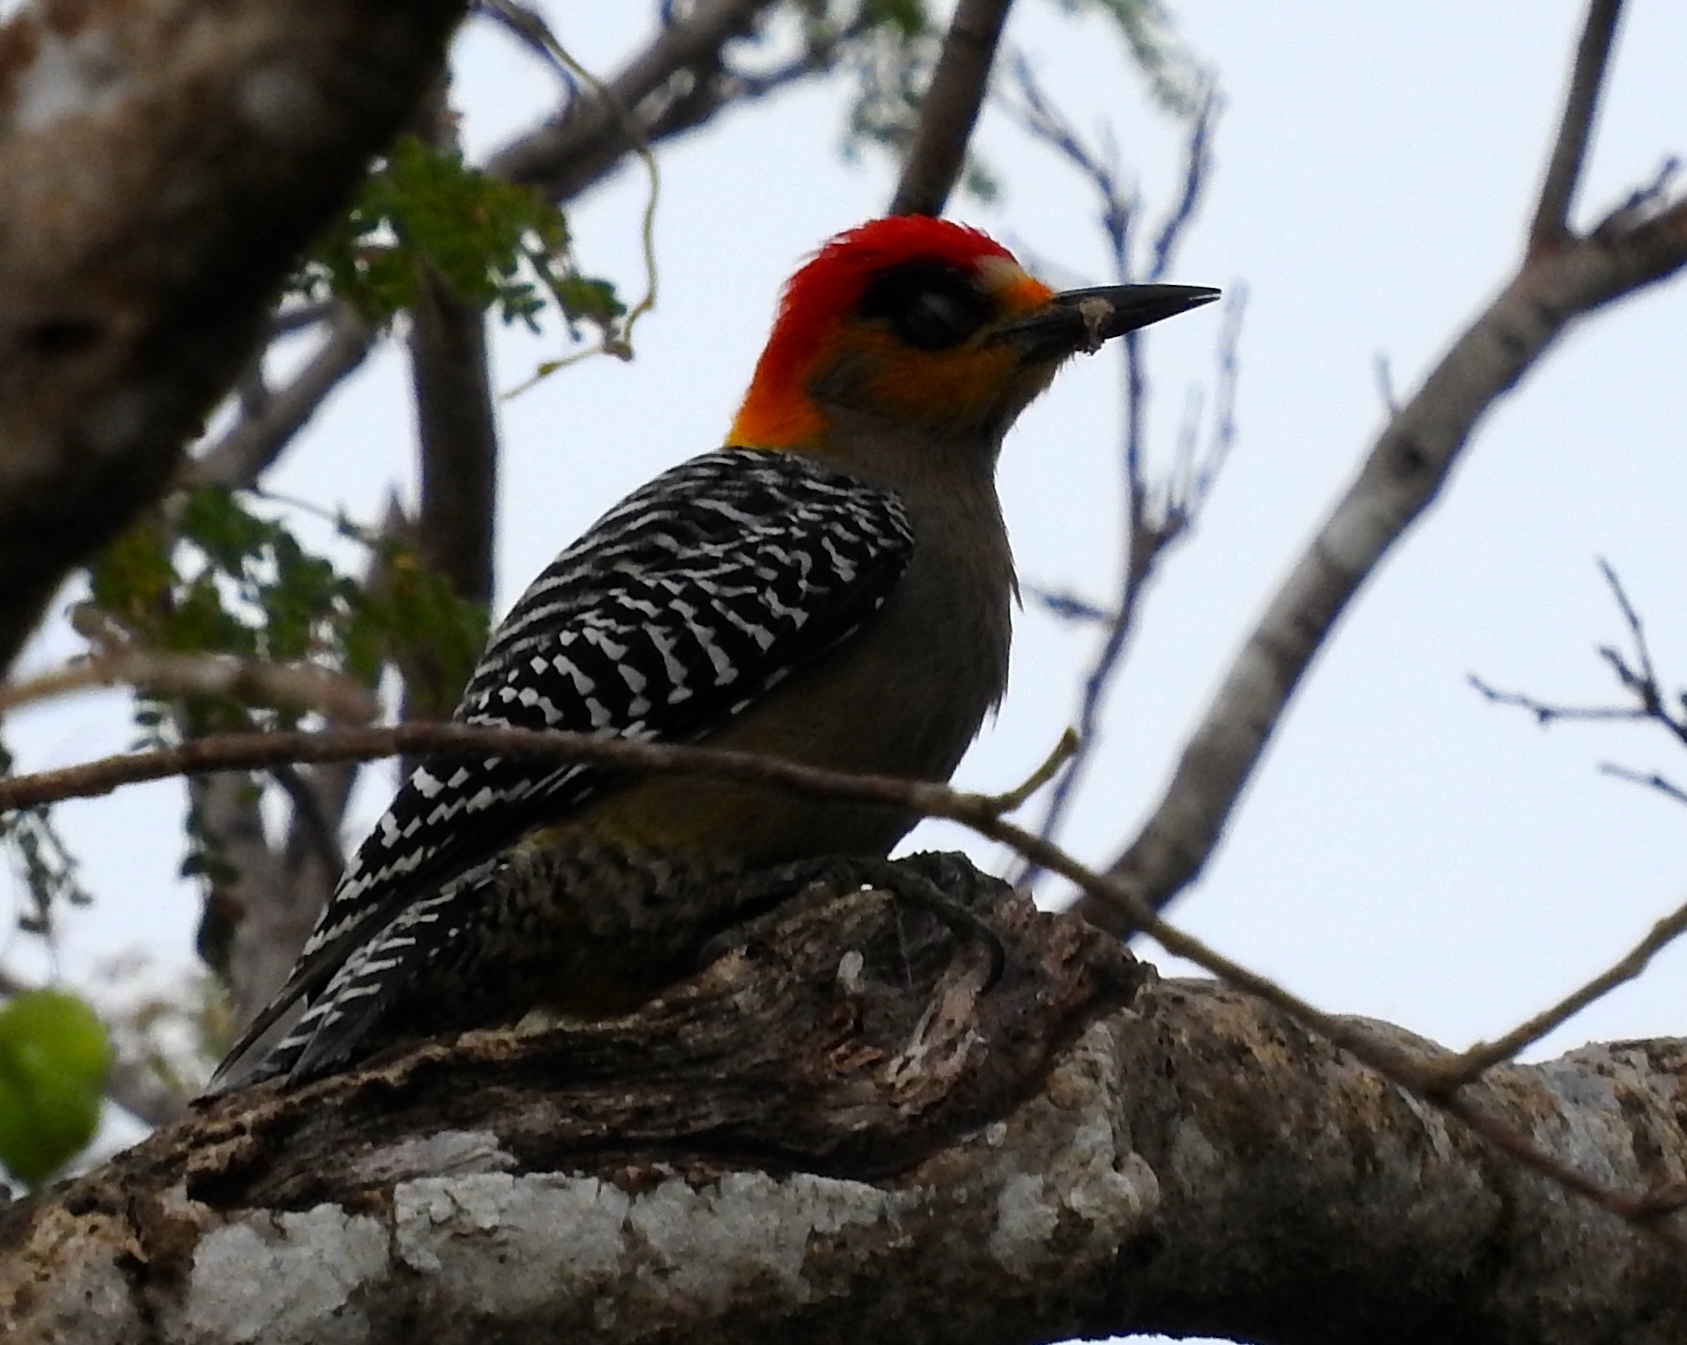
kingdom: Animalia
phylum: Chordata
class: Aves
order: Piciformes
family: Picidae
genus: Melanerpes
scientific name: Melanerpes chrysogenys
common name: Golden-cheeked woodpecker
